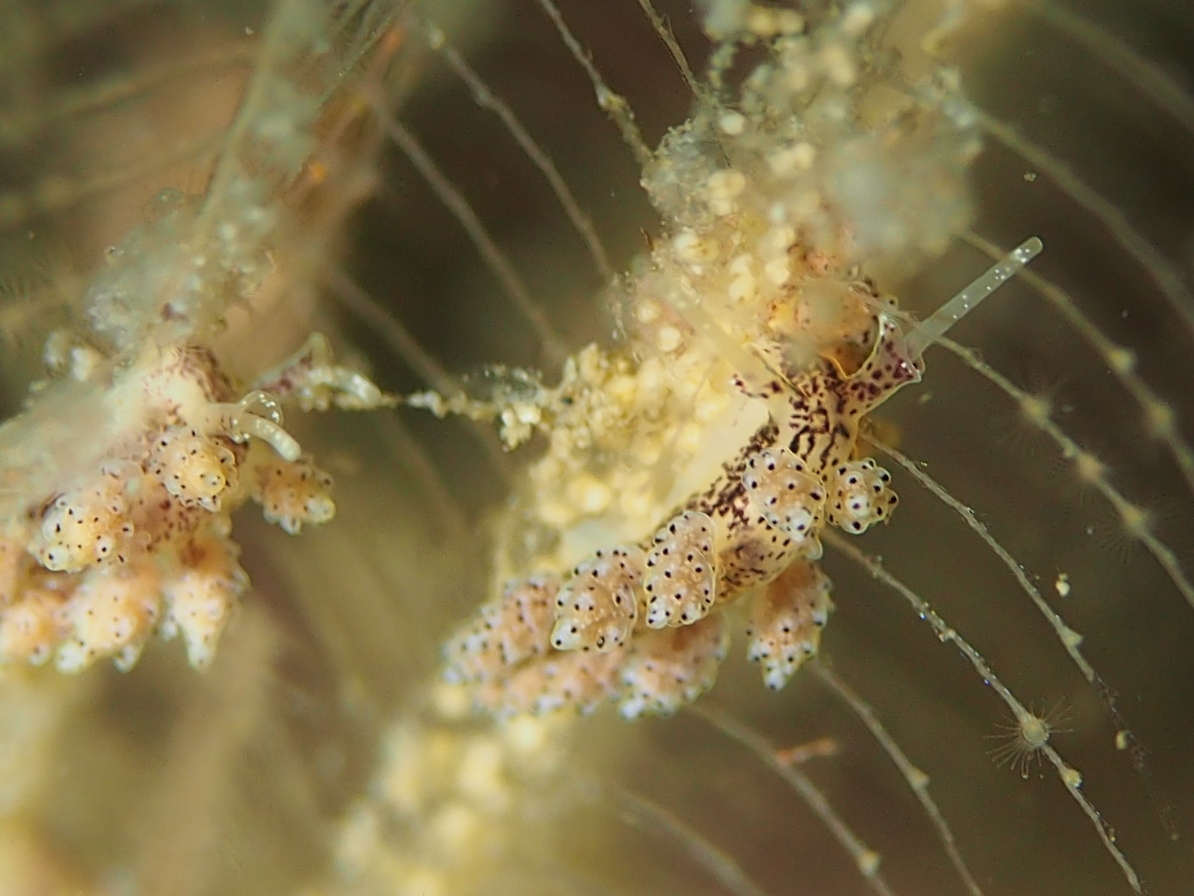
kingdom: Animalia
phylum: Mollusca
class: Gastropoda
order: Nudibranchia
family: Dotidae
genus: Doto
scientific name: Doto dunnei
